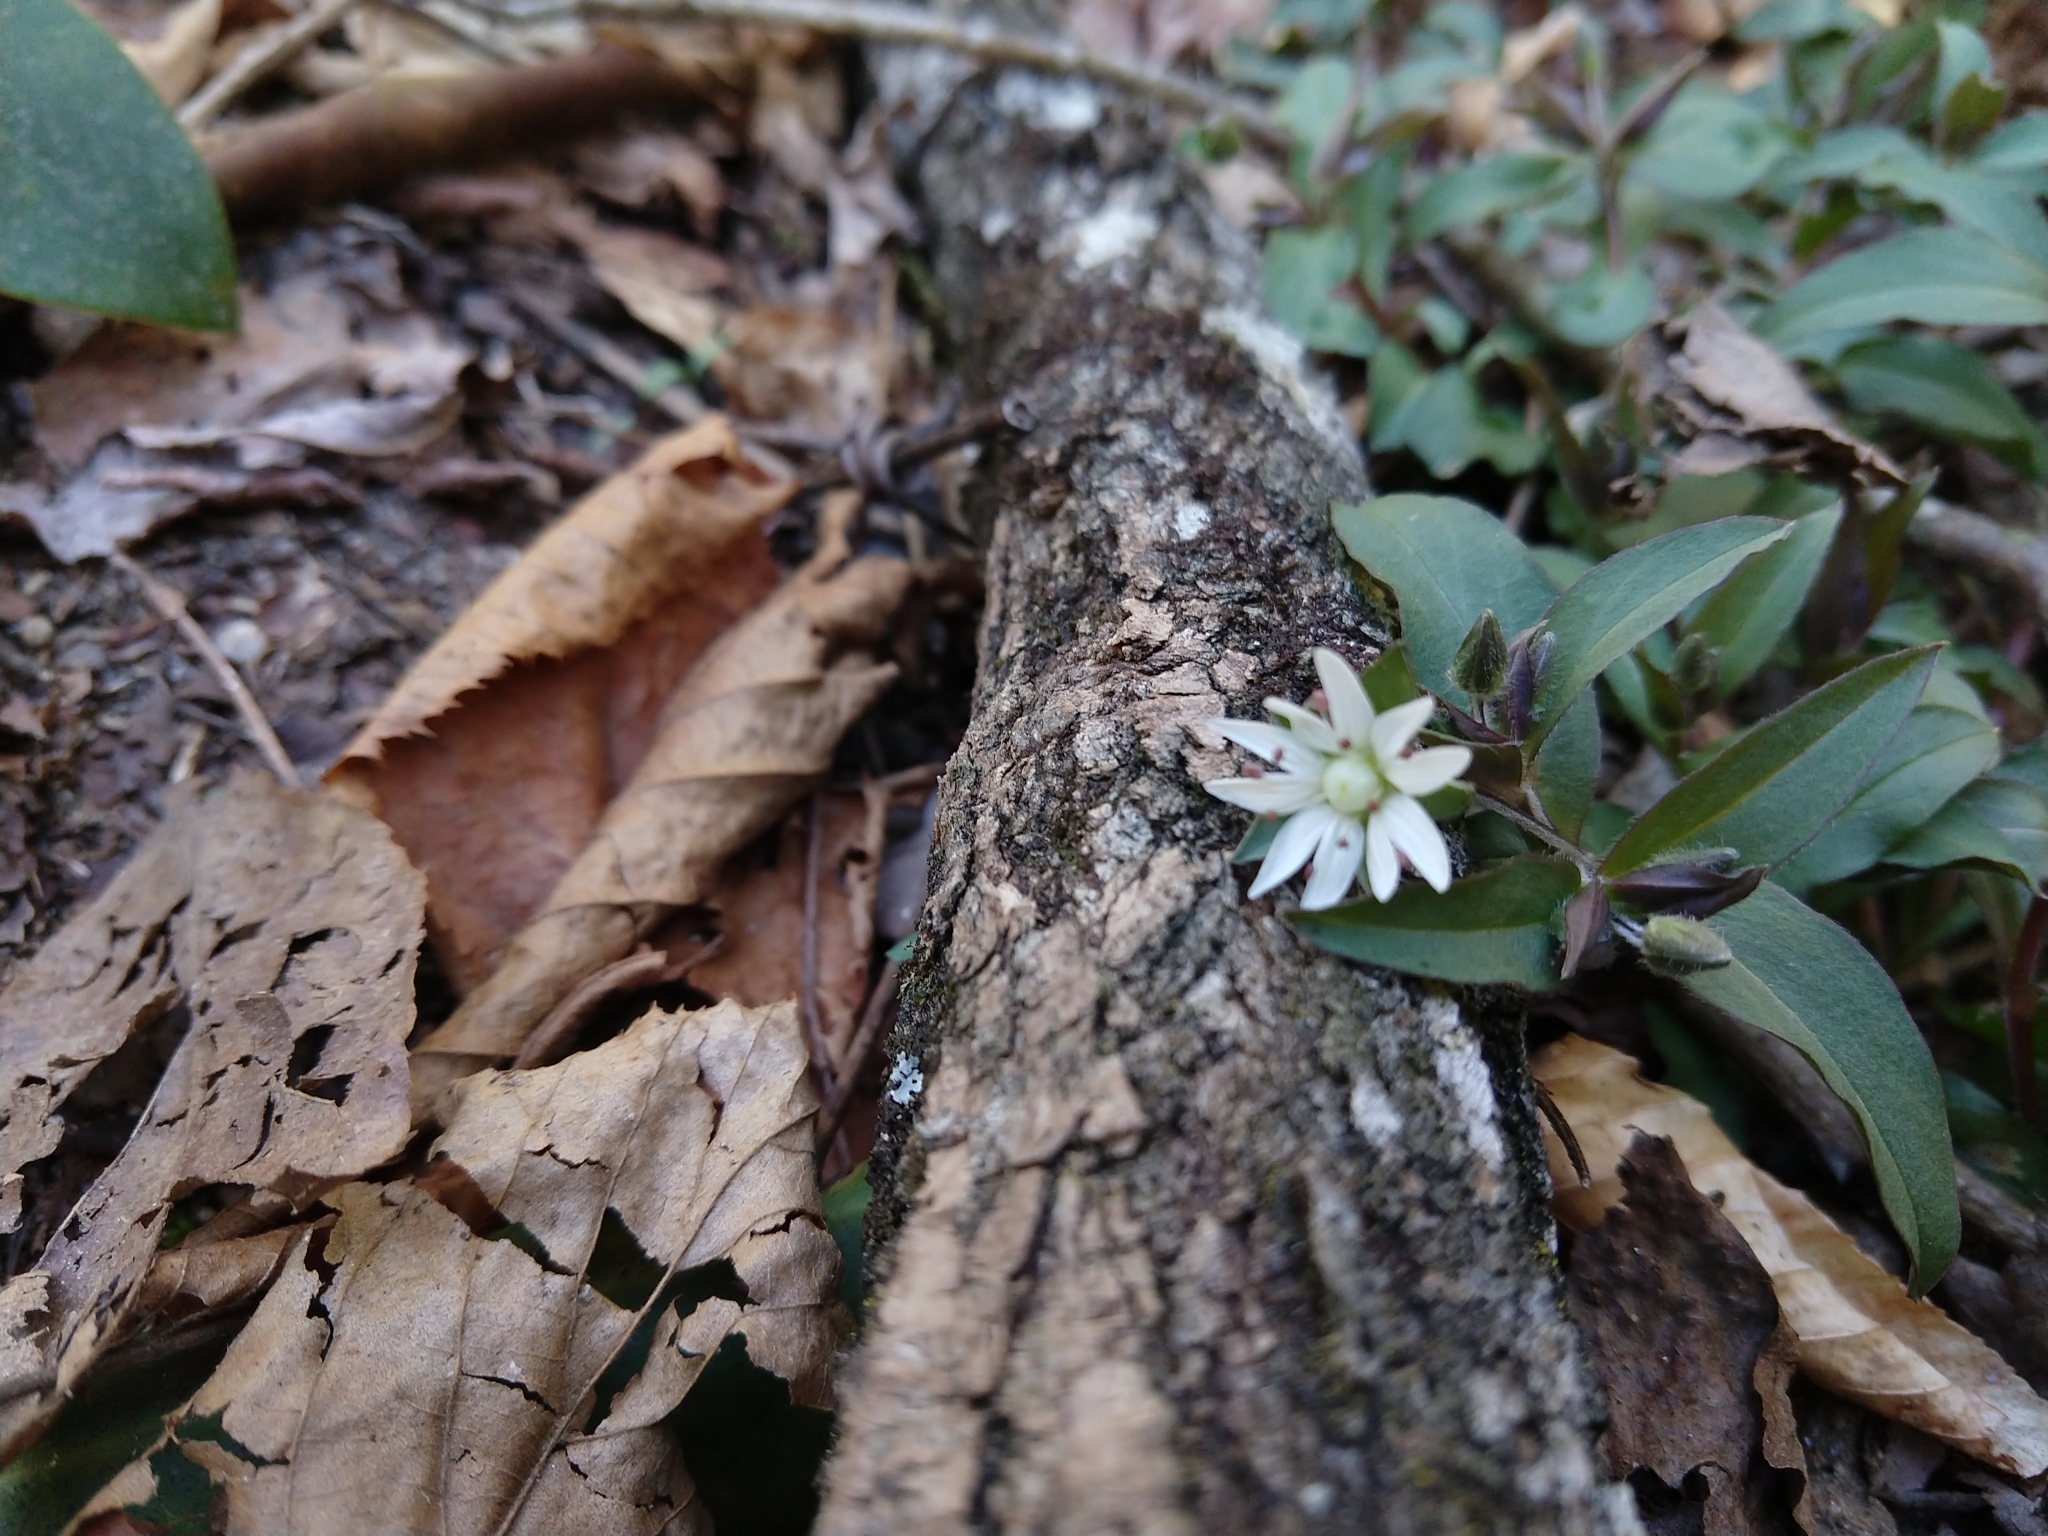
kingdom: Plantae
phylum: Tracheophyta
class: Magnoliopsida
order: Caryophyllales
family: Caryophyllaceae
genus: Stellaria
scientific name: Stellaria pubera
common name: Star chickweed
